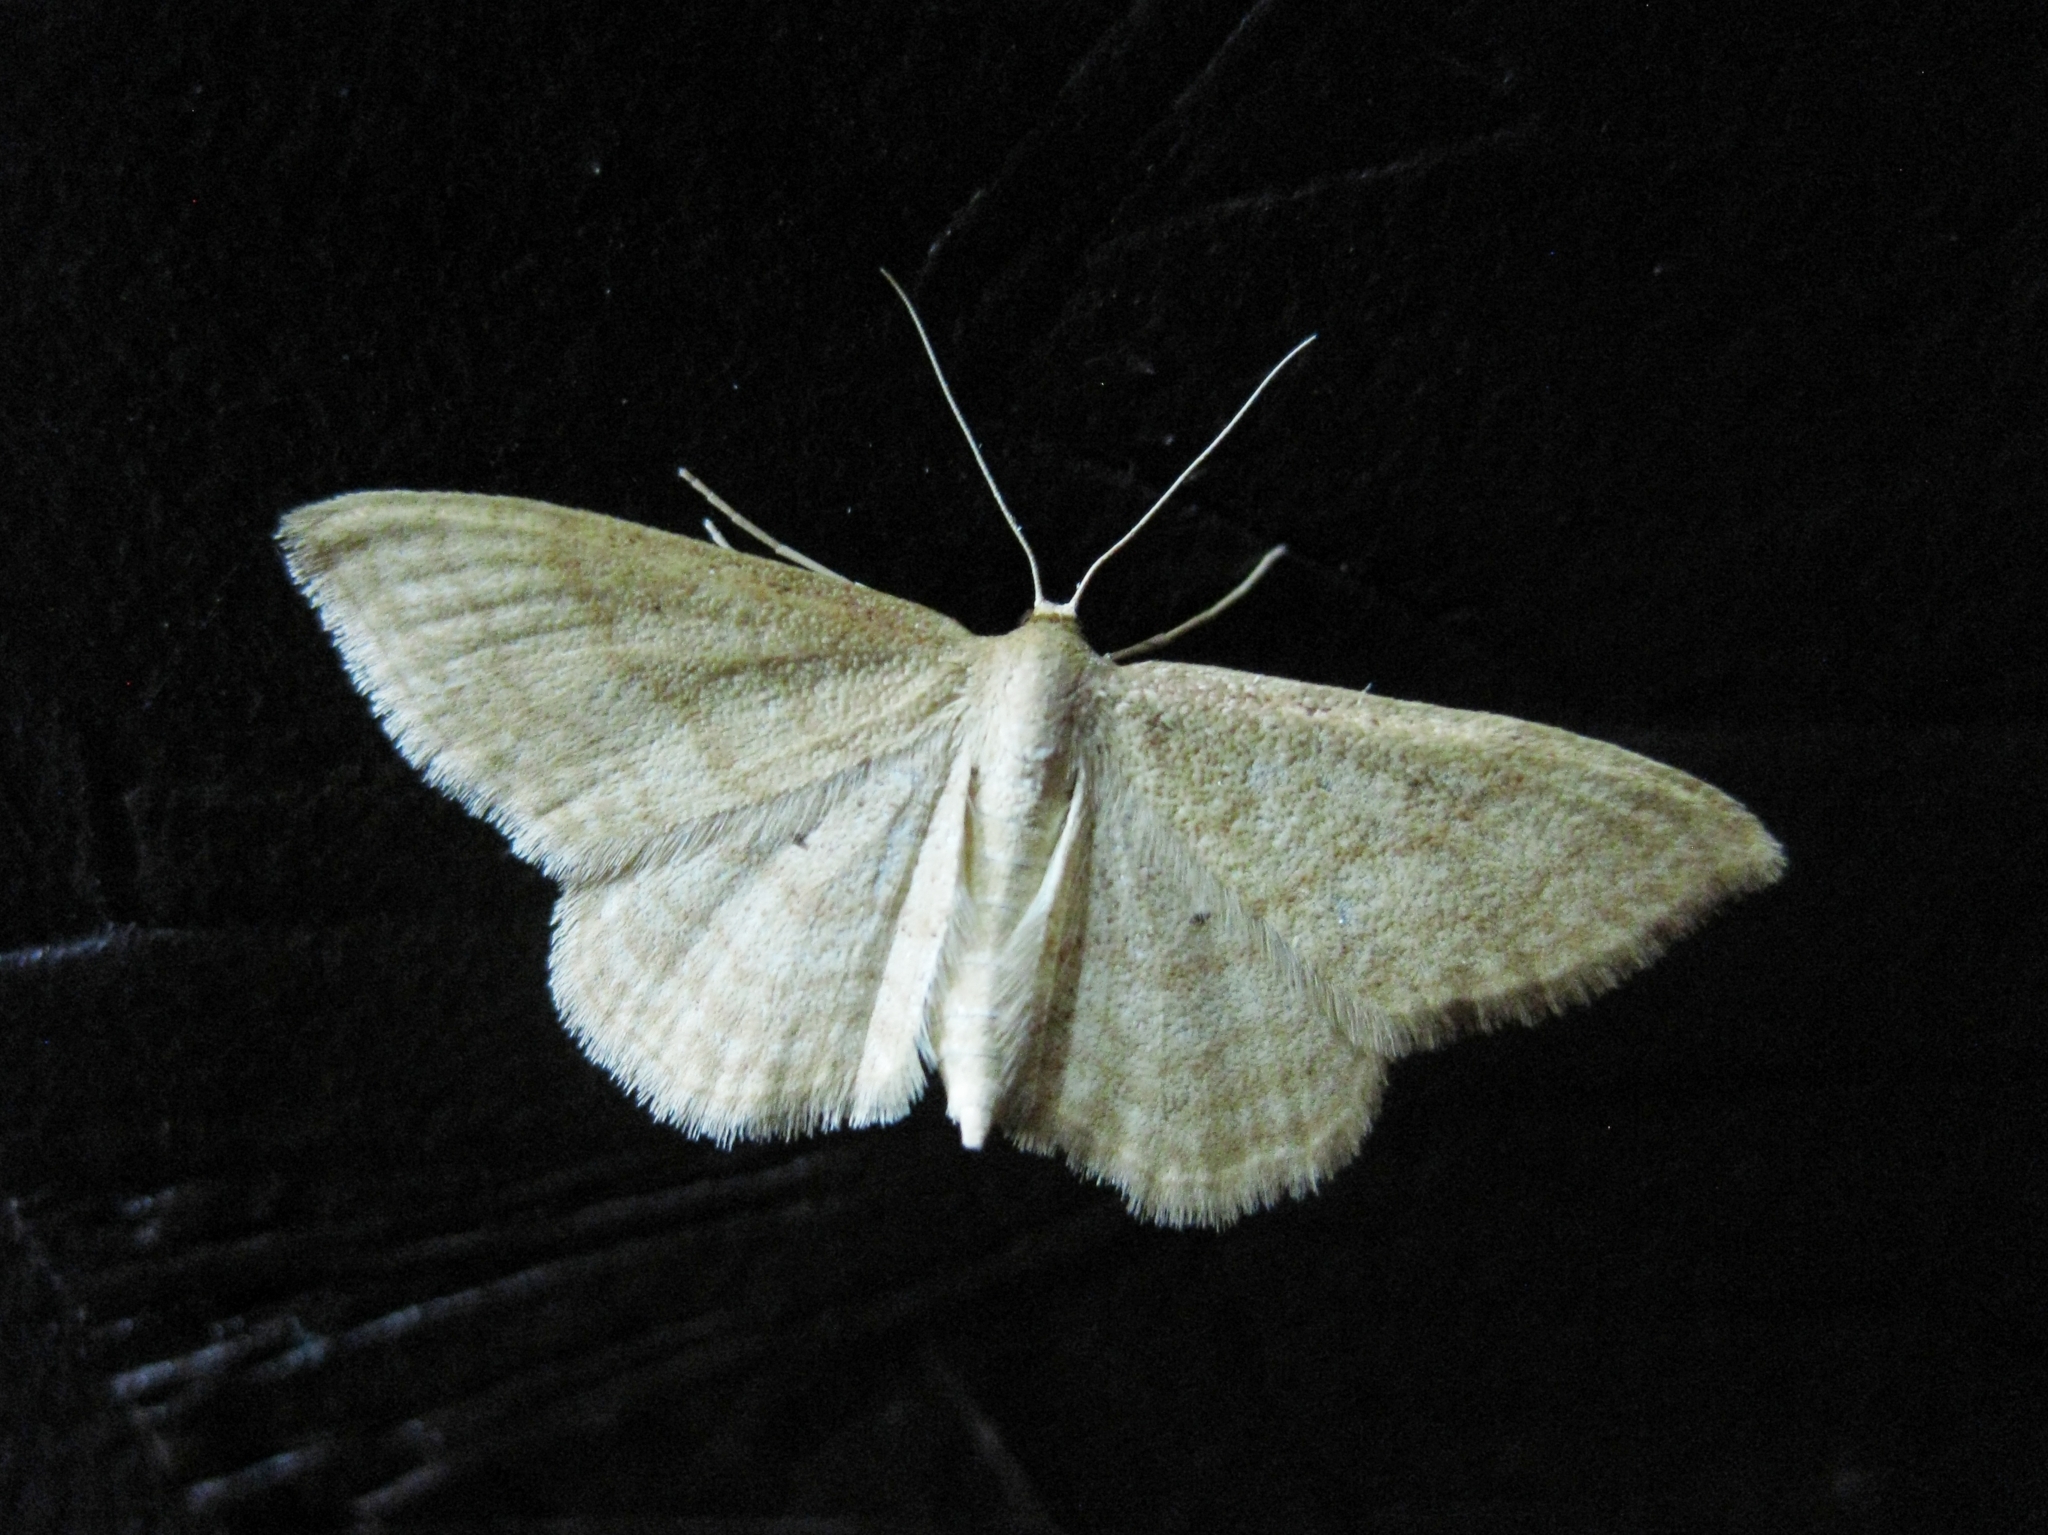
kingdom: Animalia
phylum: Arthropoda
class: Insecta
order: Lepidoptera
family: Geometridae
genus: Idaea
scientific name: Idaea rufaria
